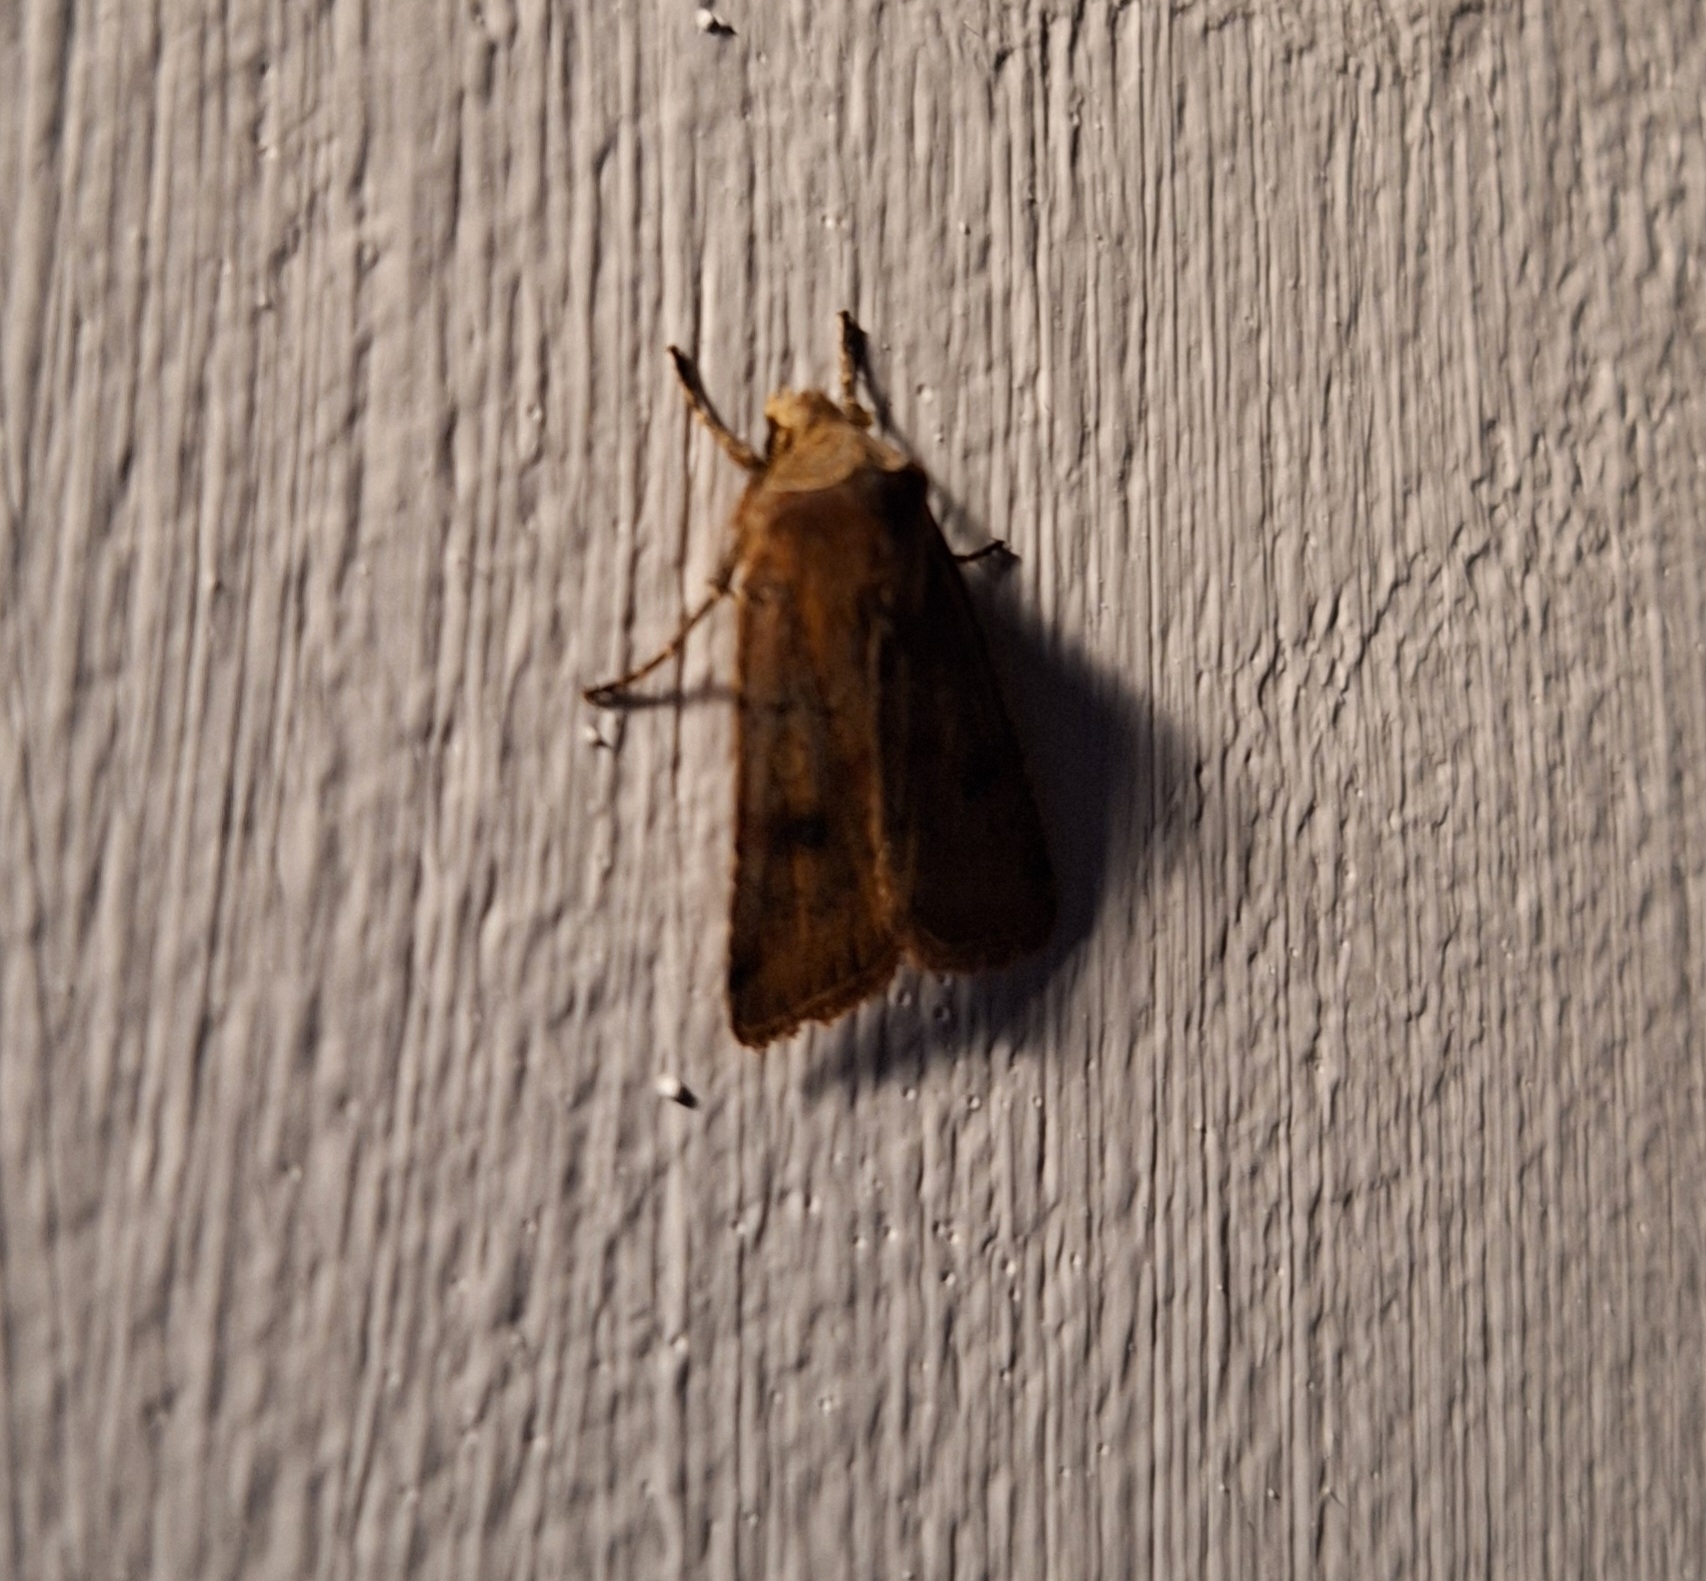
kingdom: Animalia
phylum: Arthropoda
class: Insecta
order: Lepidoptera
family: Noctuidae
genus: Cerastis
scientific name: Cerastis faceta
